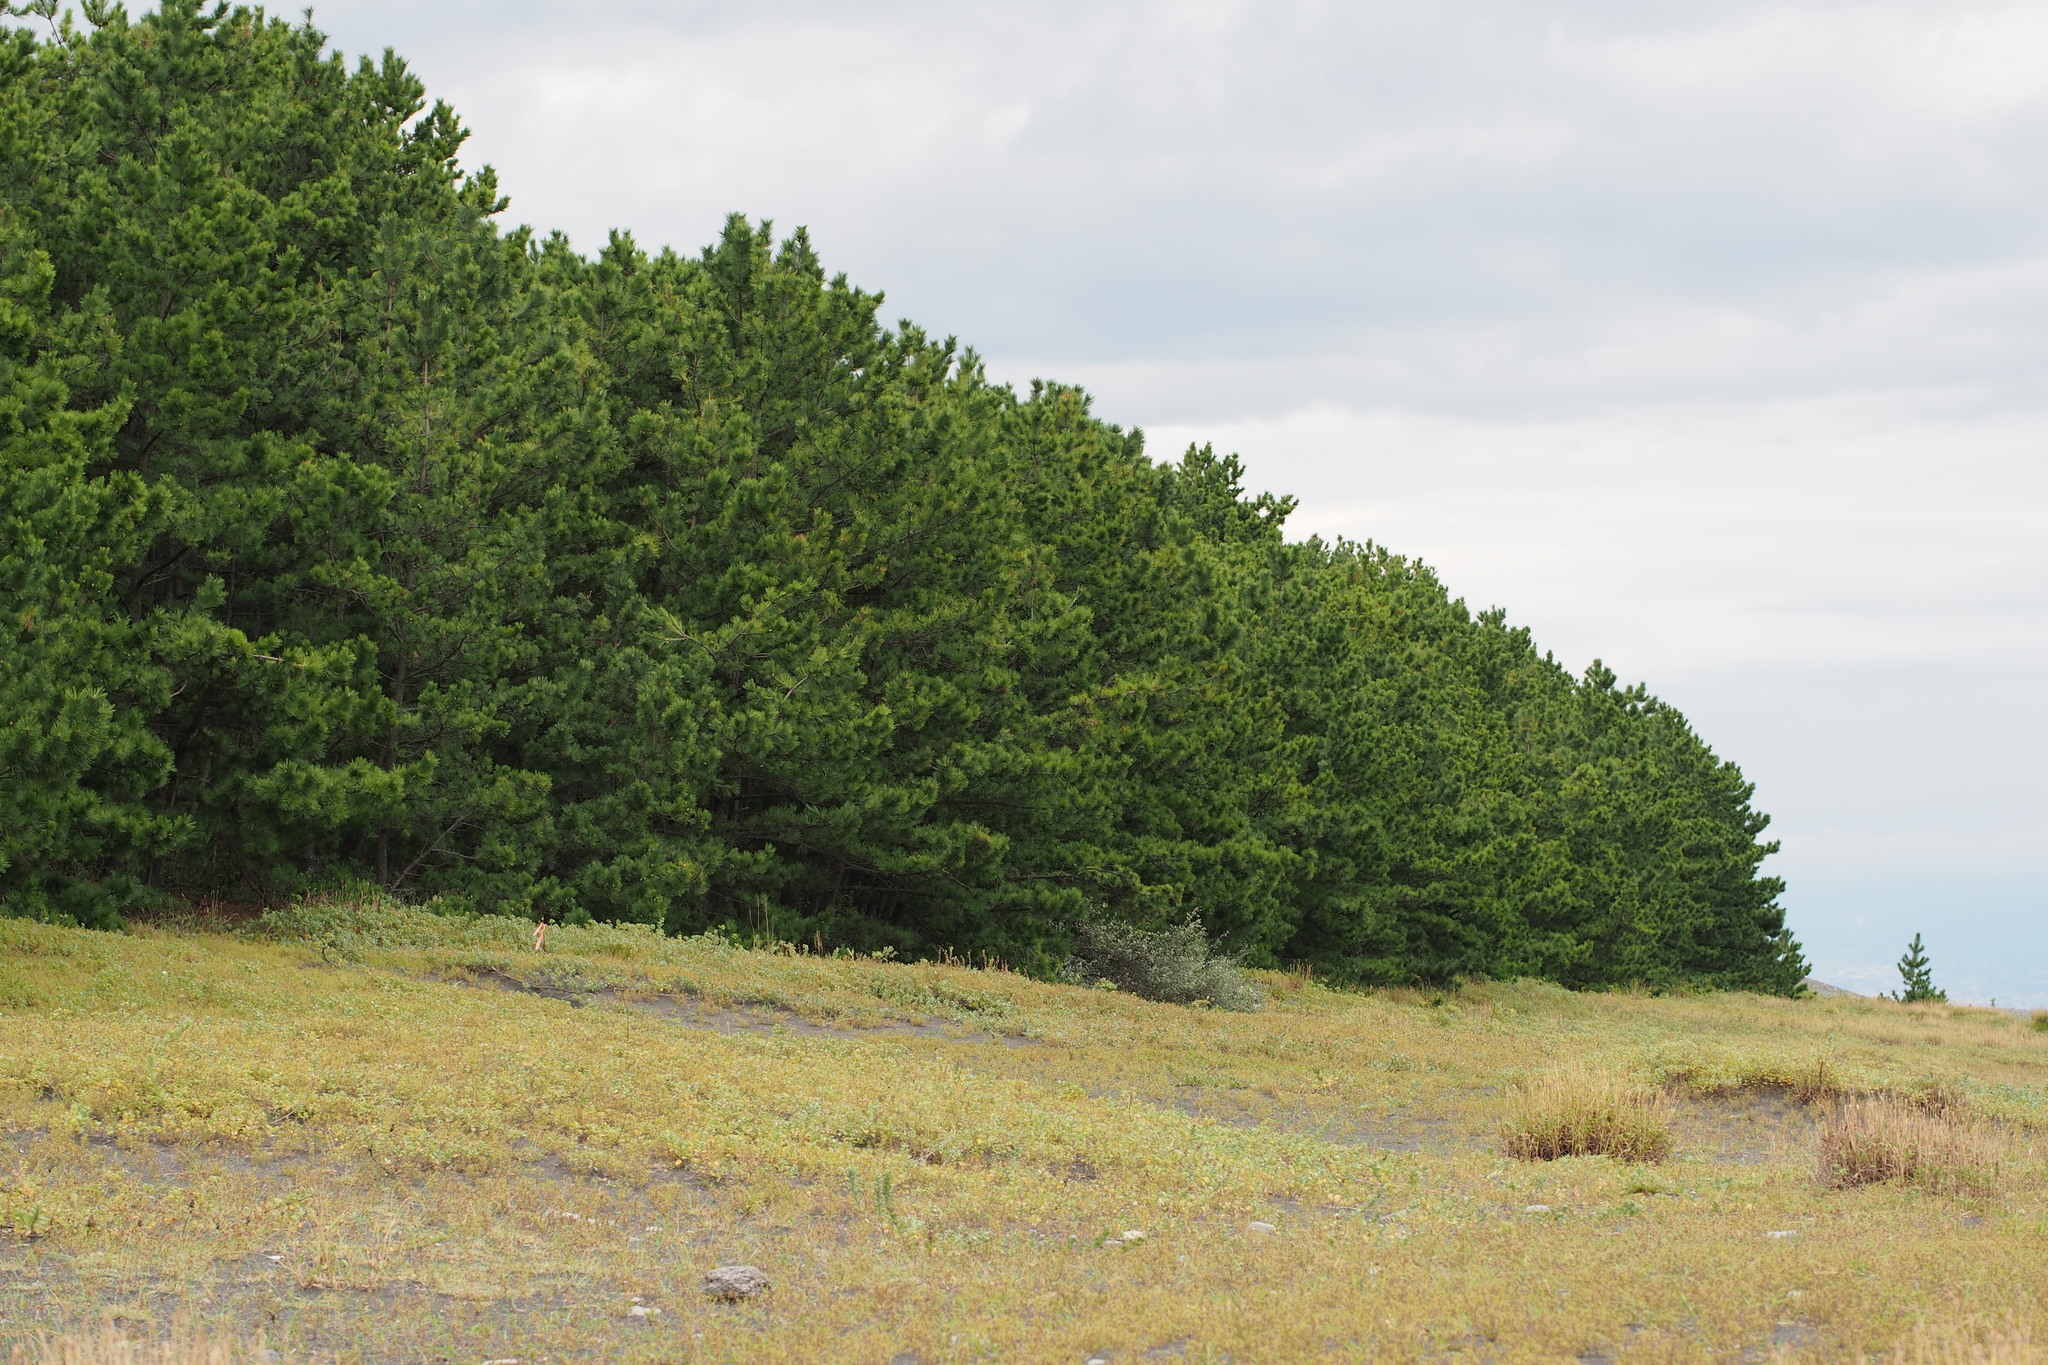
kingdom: Plantae
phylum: Tracheophyta
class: Pinopsida
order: Pinales
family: Pinaceae
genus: Pinus
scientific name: Pinus thunbergii
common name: Japanese black pine
